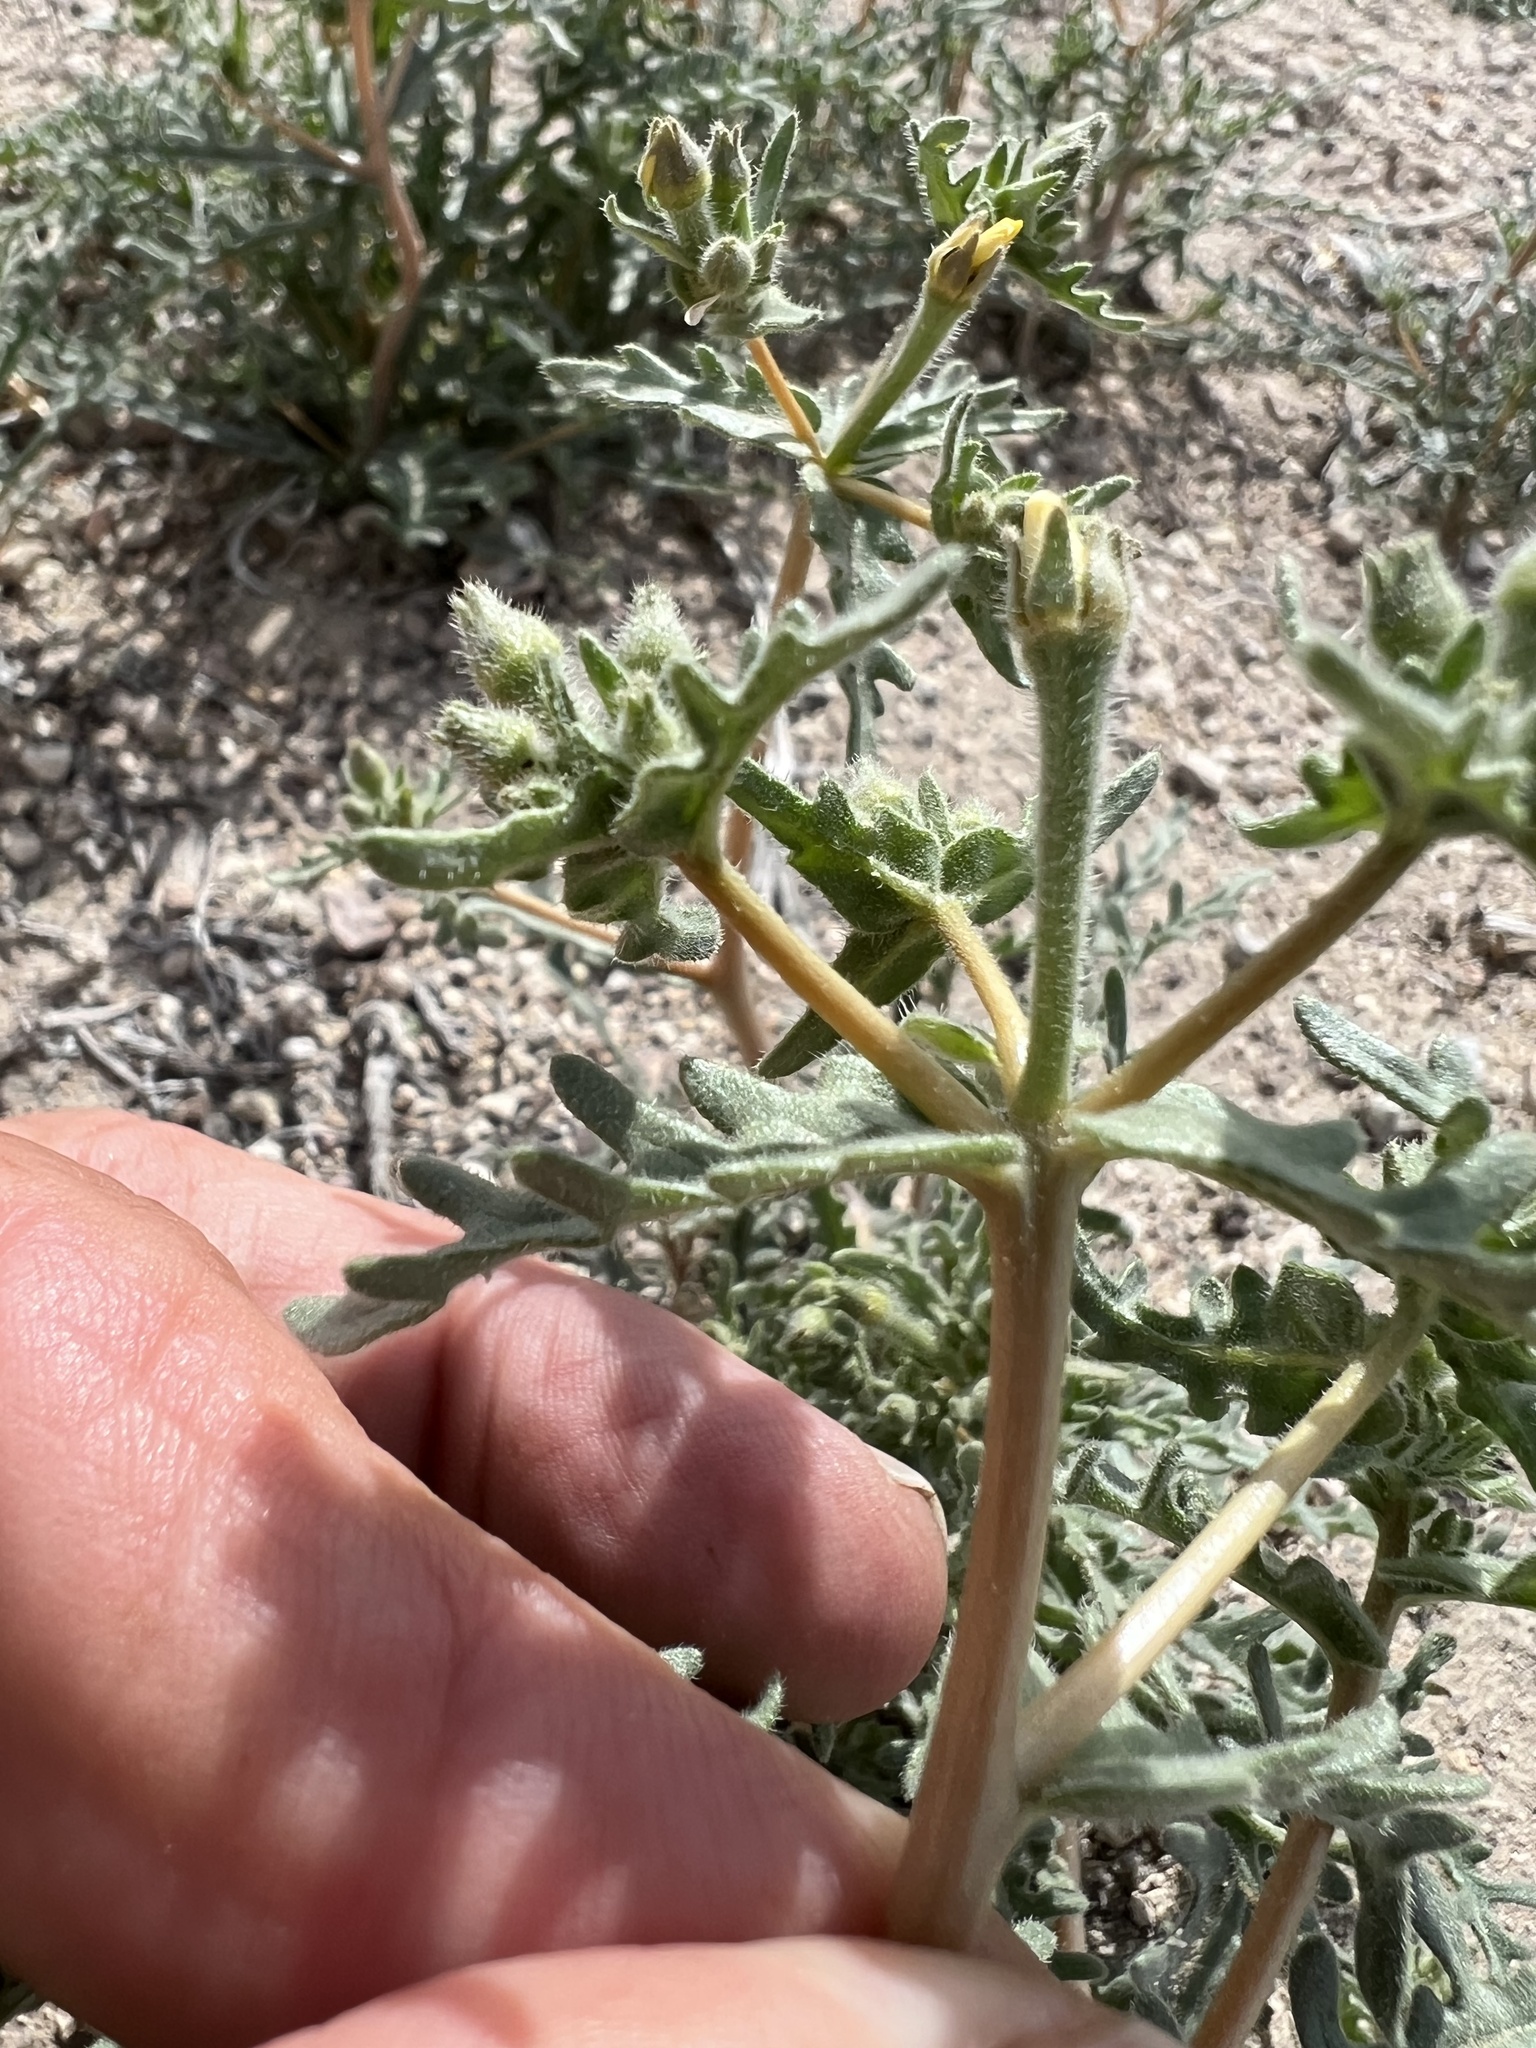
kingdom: Plantae
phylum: Tracheophyta
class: Magnoliopsida
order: Cornales
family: Loasaceae
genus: Mentzelia
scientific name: Mentzelia albicaulis
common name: White-stem blazingstar
